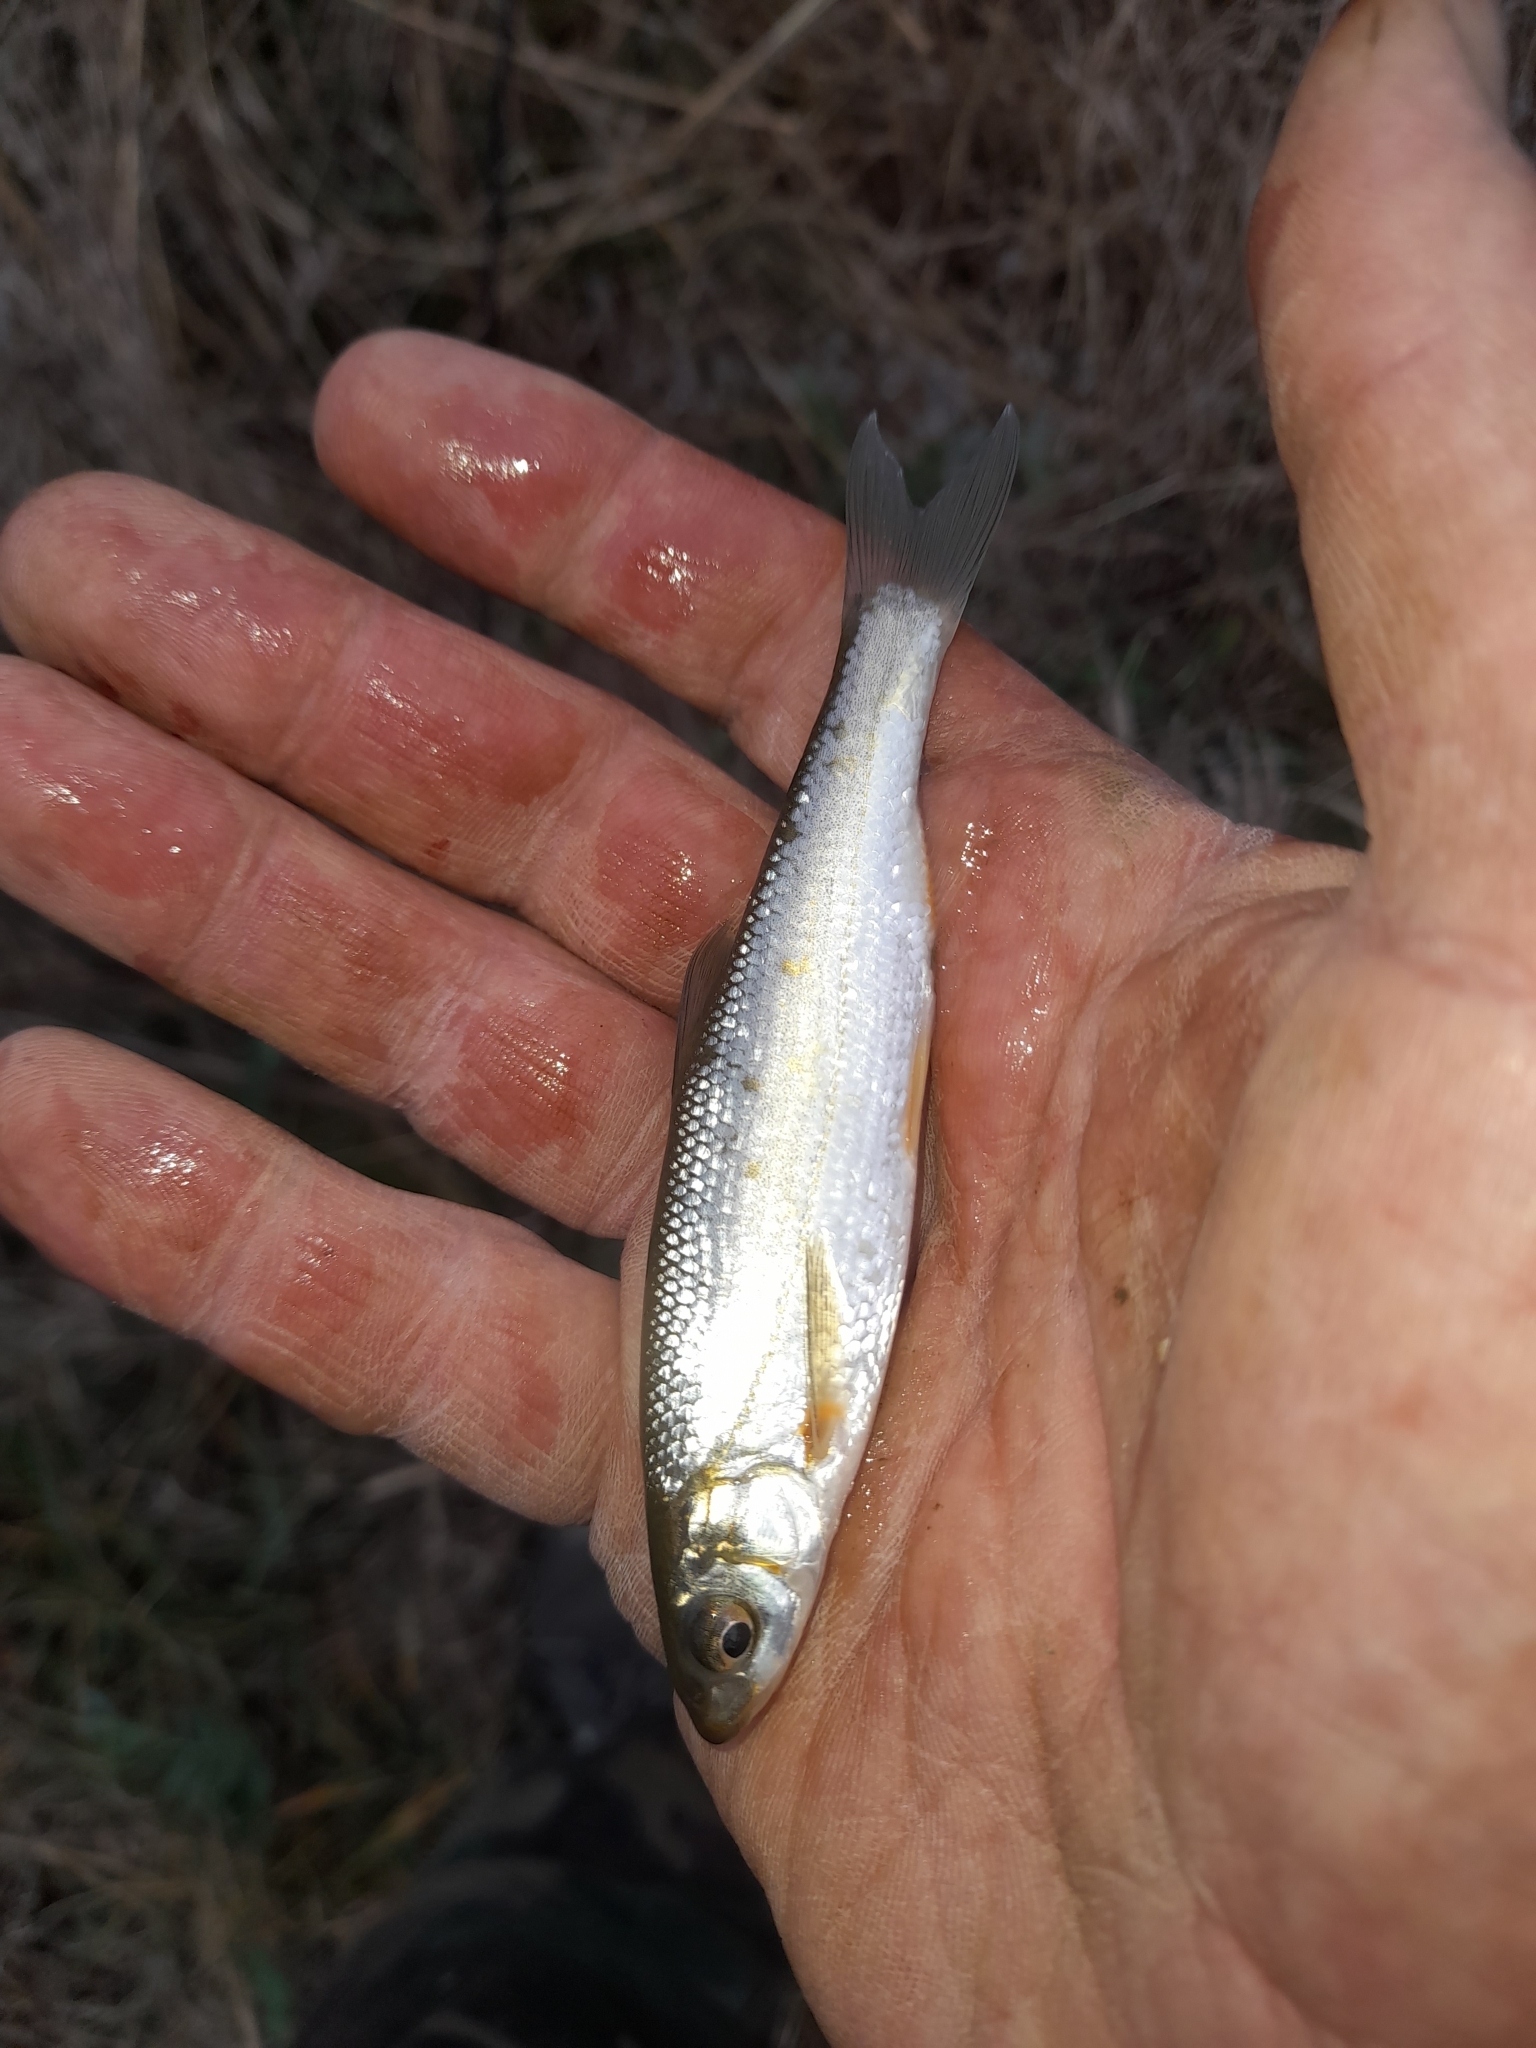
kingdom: Animalia
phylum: Chordata
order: Cypriniformes
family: Cyprinidae
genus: Protochondrostoma
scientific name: Protochondrostoma genei
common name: South european nase
